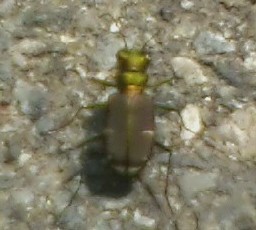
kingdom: Animalia
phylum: Arthropoda
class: Insecta
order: Coleoptera
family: Carabidae
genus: Cicindela
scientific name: Cicindela splendida
